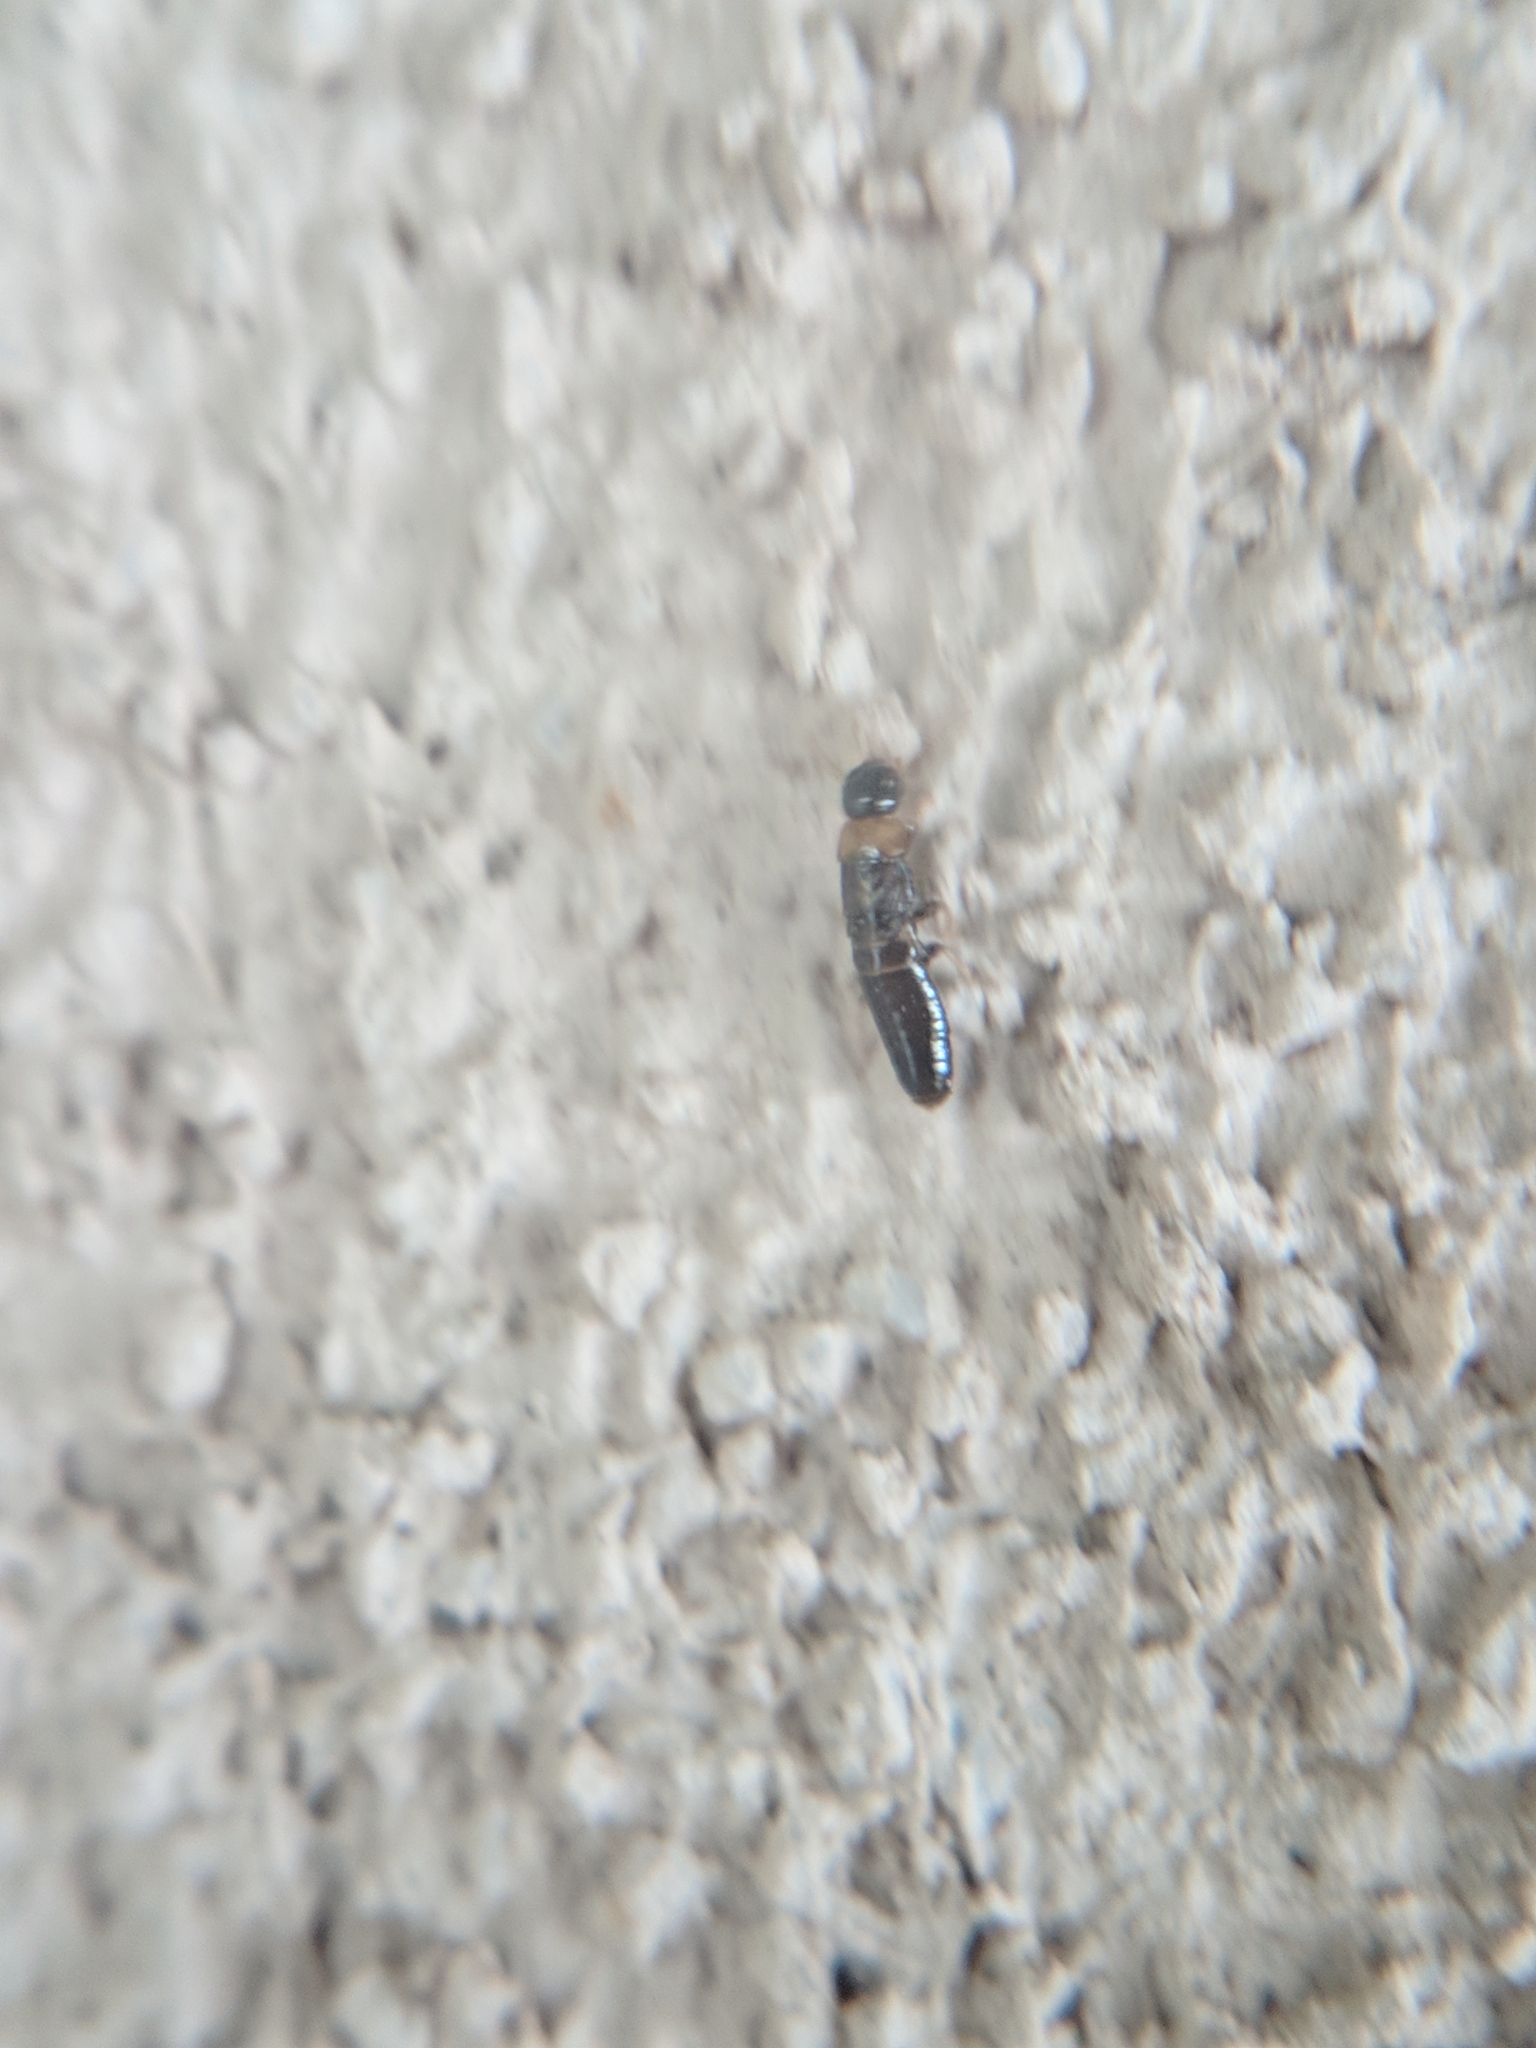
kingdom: Animalia
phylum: Arthropoda
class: Insecta
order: Blattodea
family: Kalotermitidae
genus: Kalotermes
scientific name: Kalotermes flavicollis
